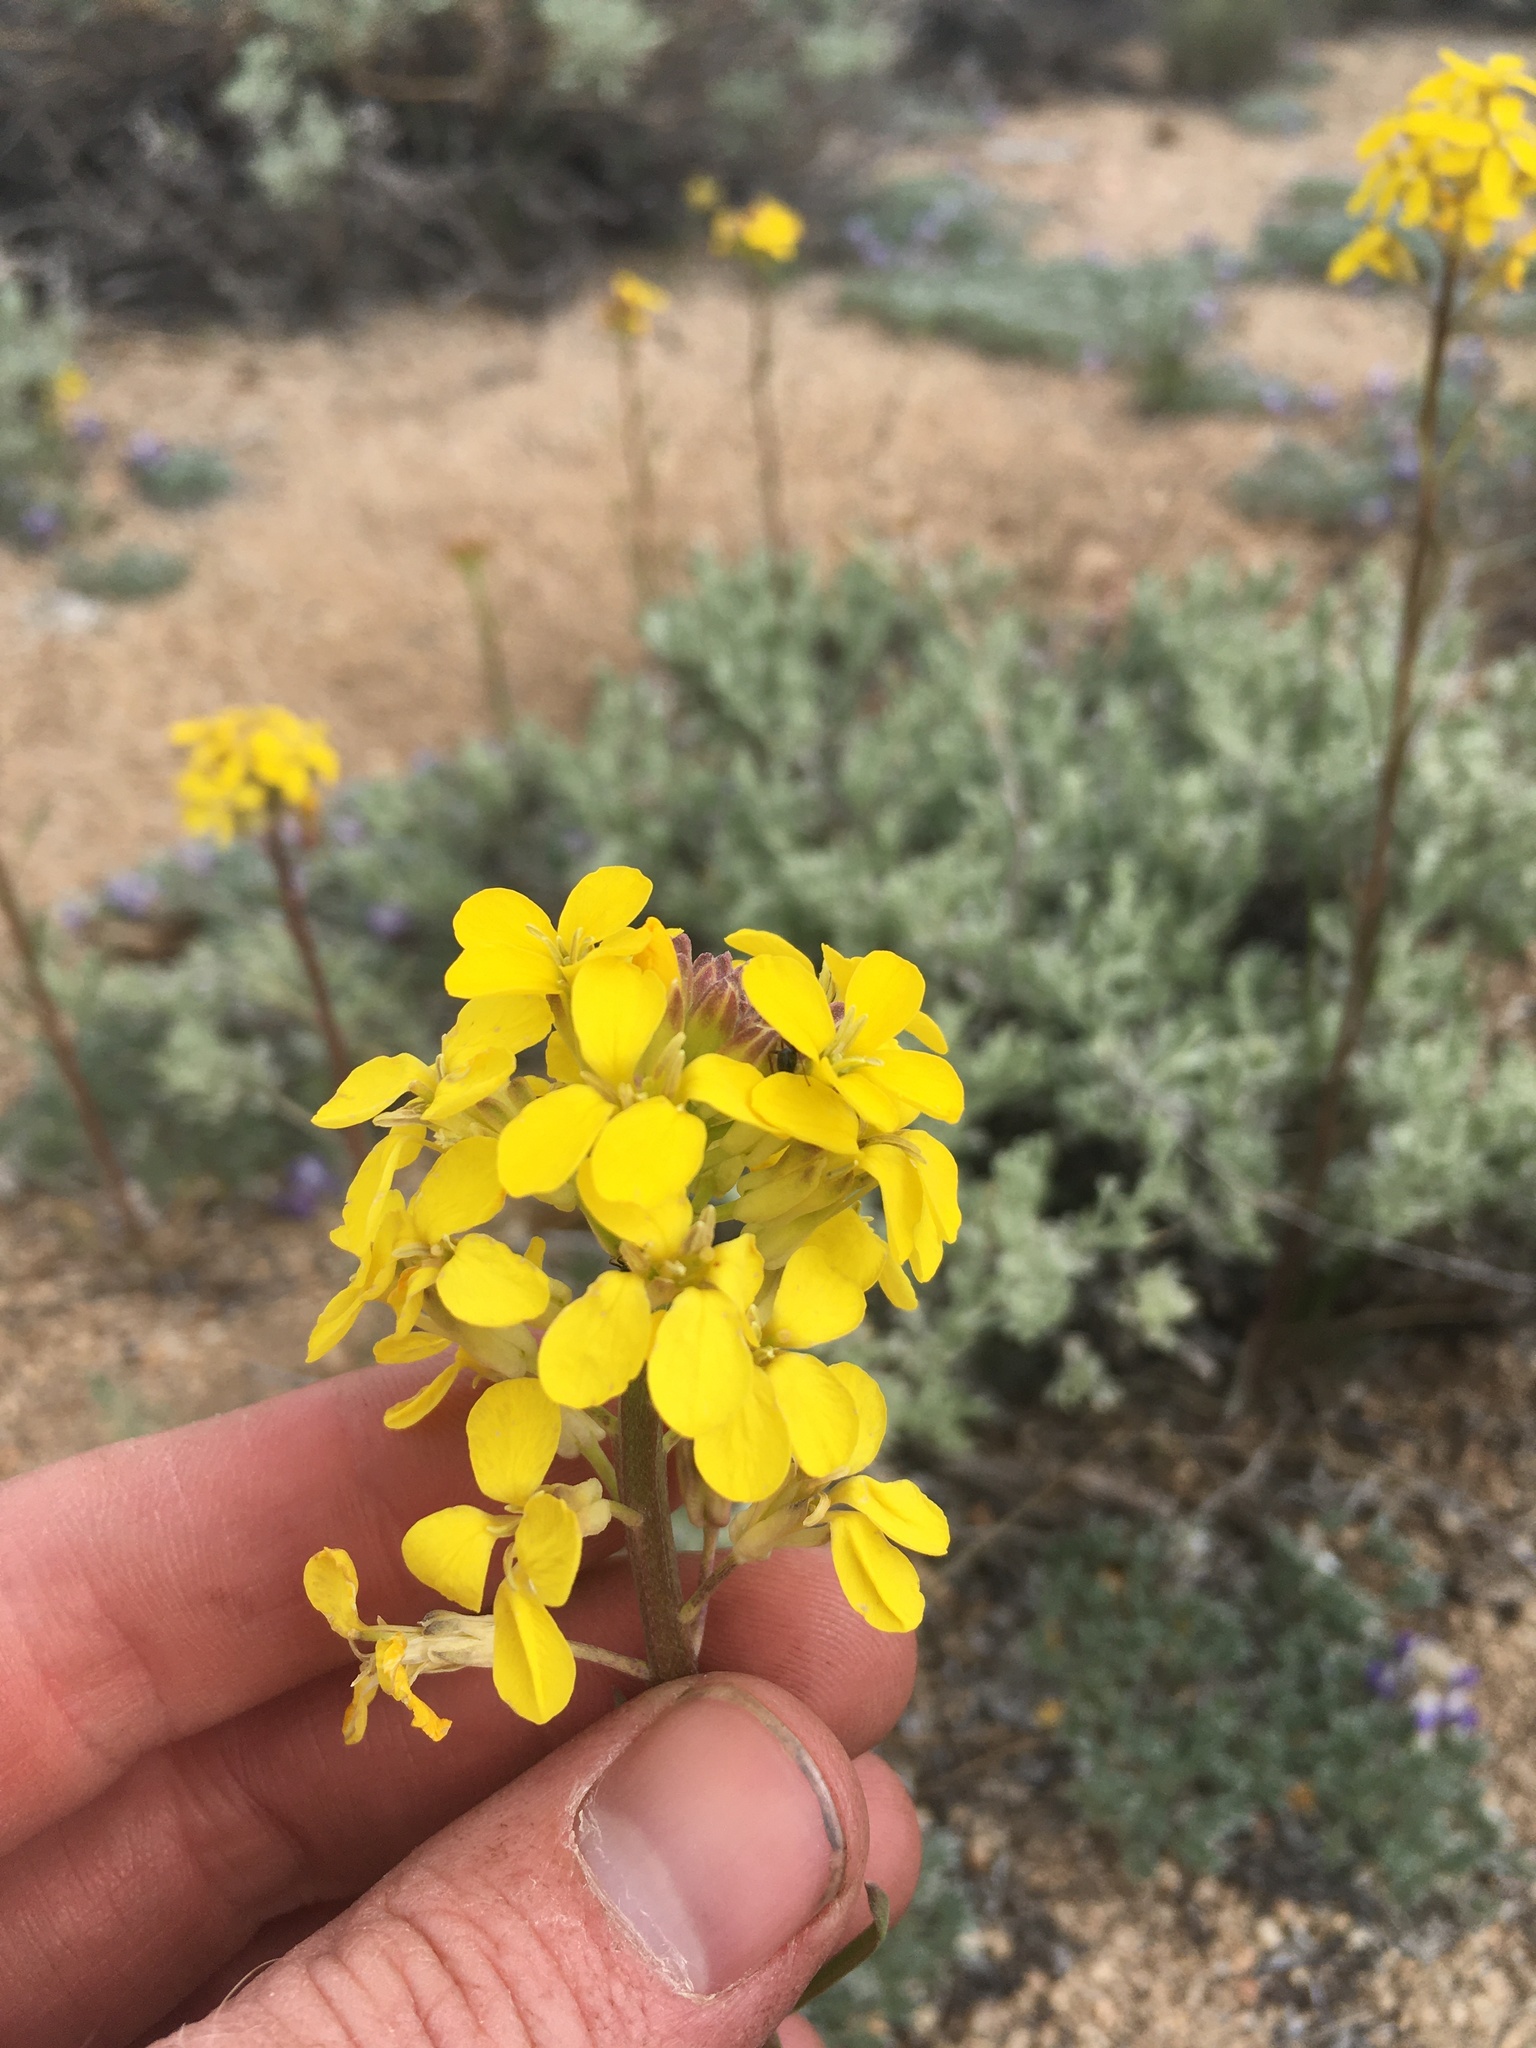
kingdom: Plantae
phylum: Tracheophyta
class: Magnoliopsida
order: Brassicales
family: Brassicaceae
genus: Erysimum
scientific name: Erysimum capitatum
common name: Western wallflower
